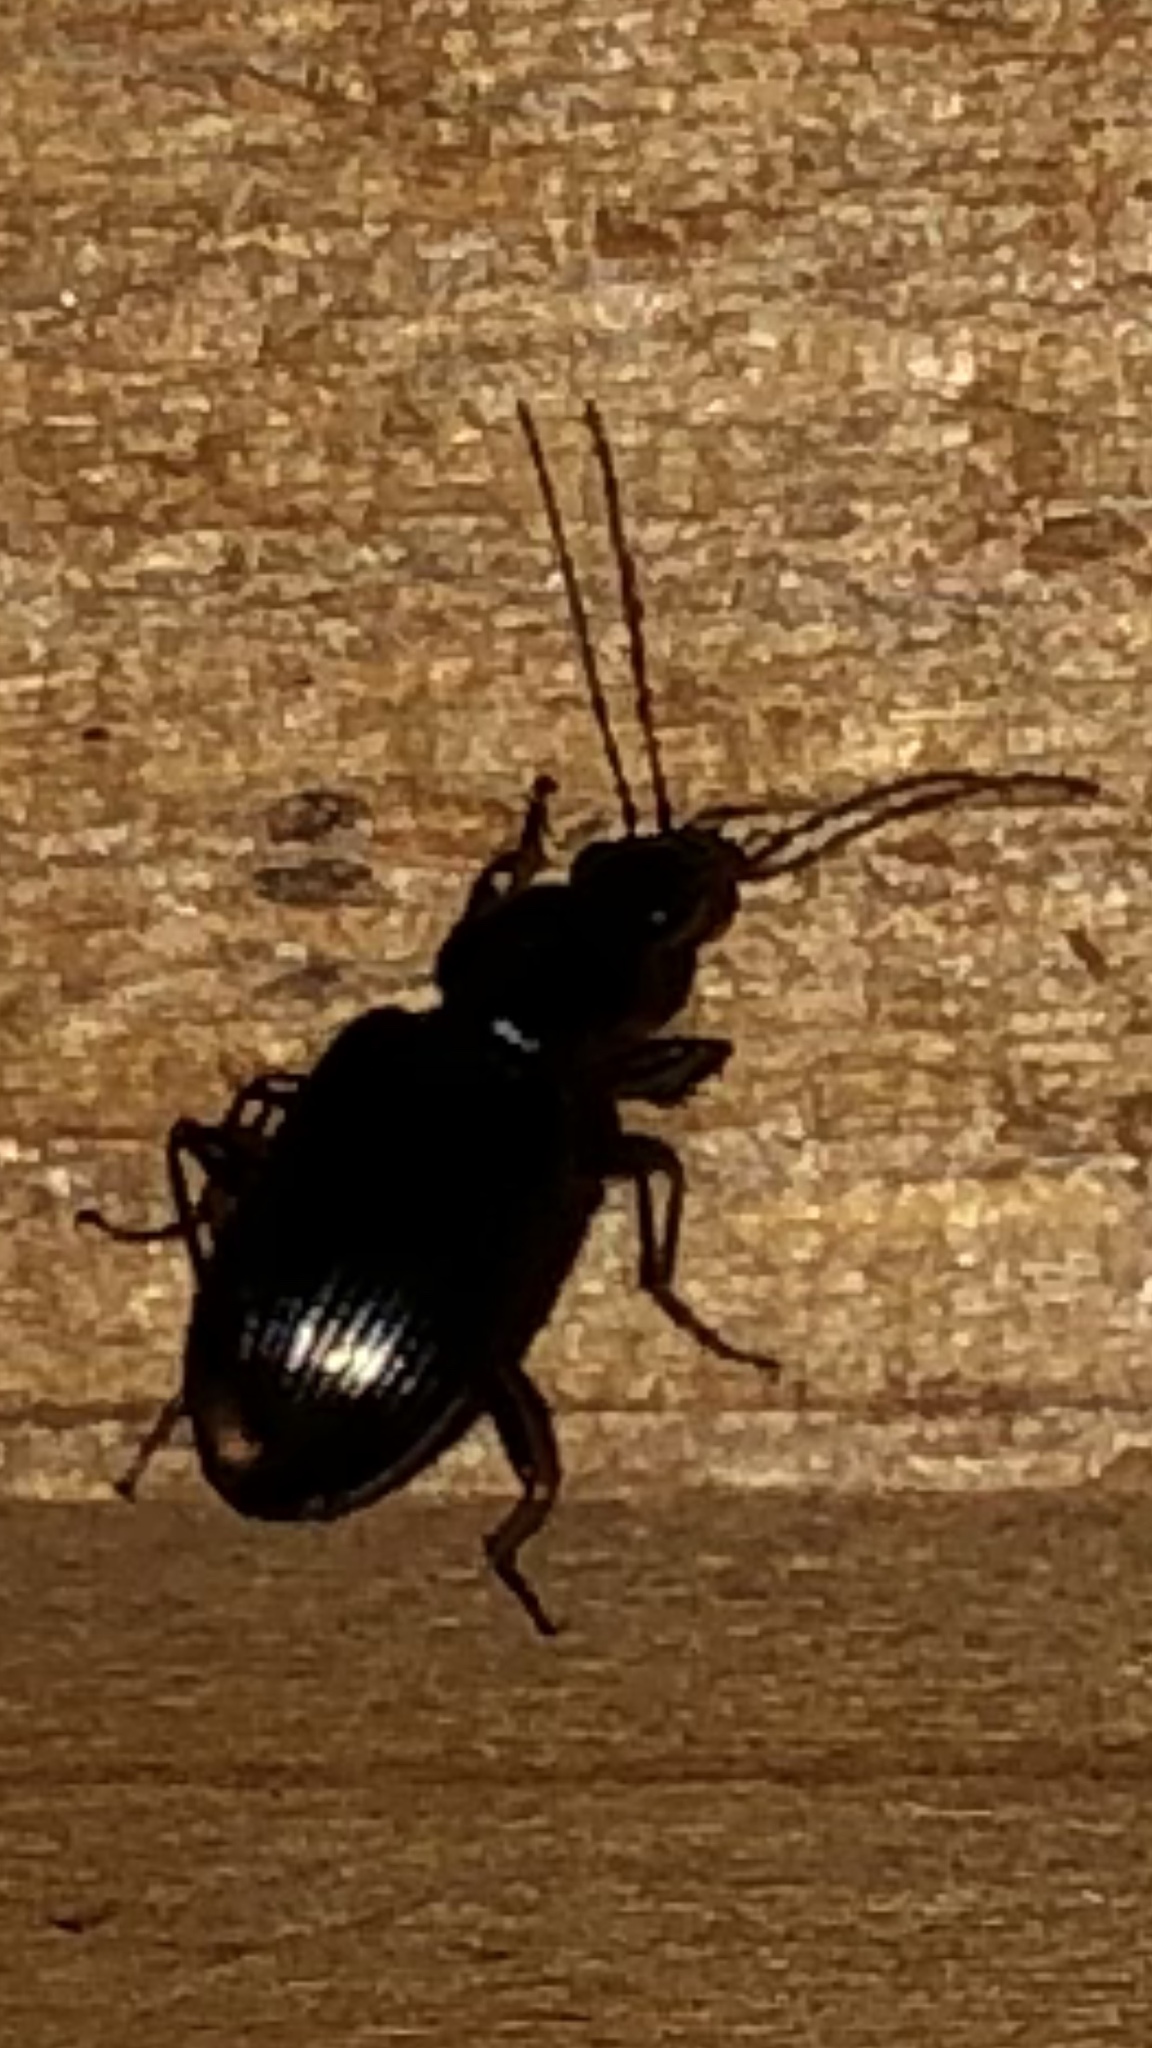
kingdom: Animalia
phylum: Arthropoda
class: Insecta
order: Coleoptera
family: Carabidae
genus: Agonum
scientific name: Agonum punctiforme
